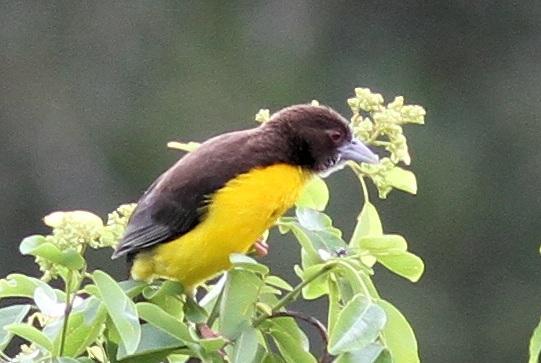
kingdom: Animalia
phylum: Chordata
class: Aves
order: Passeriformes
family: Ploceidae
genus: Ploceus
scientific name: Ploceus bicolor
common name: Dark-backed weaver
